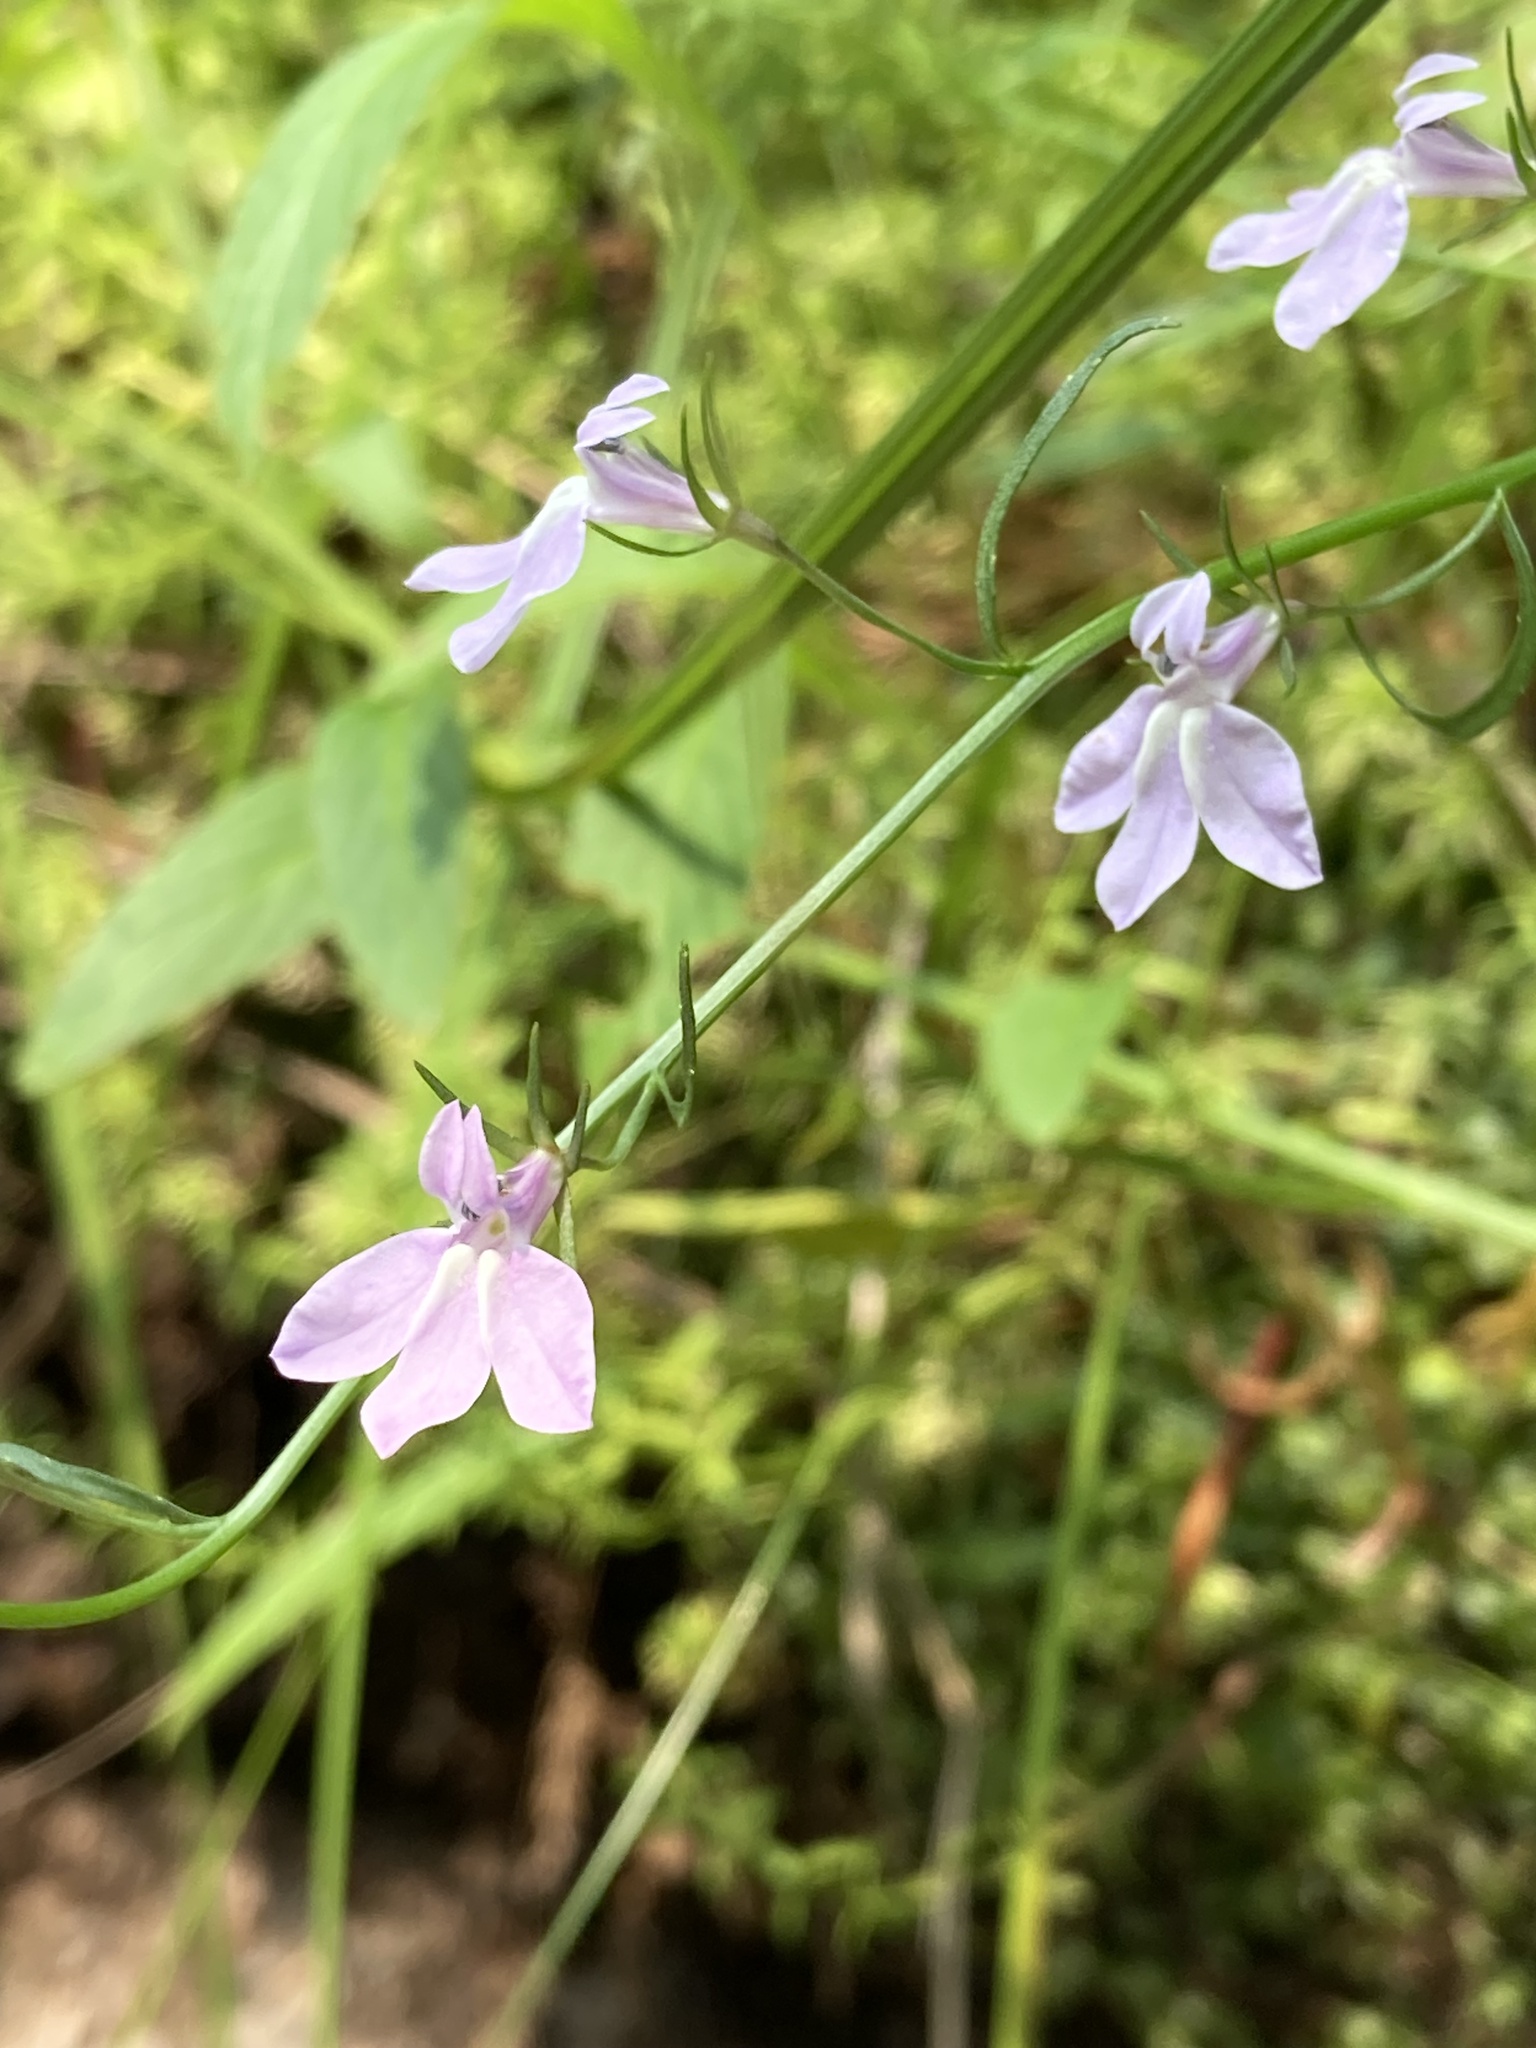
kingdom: Plantae
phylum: Tracheophyta
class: Magnoliopsida
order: Asterales
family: Campanulaceae
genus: Lobelia
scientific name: Lobelia canbyi
